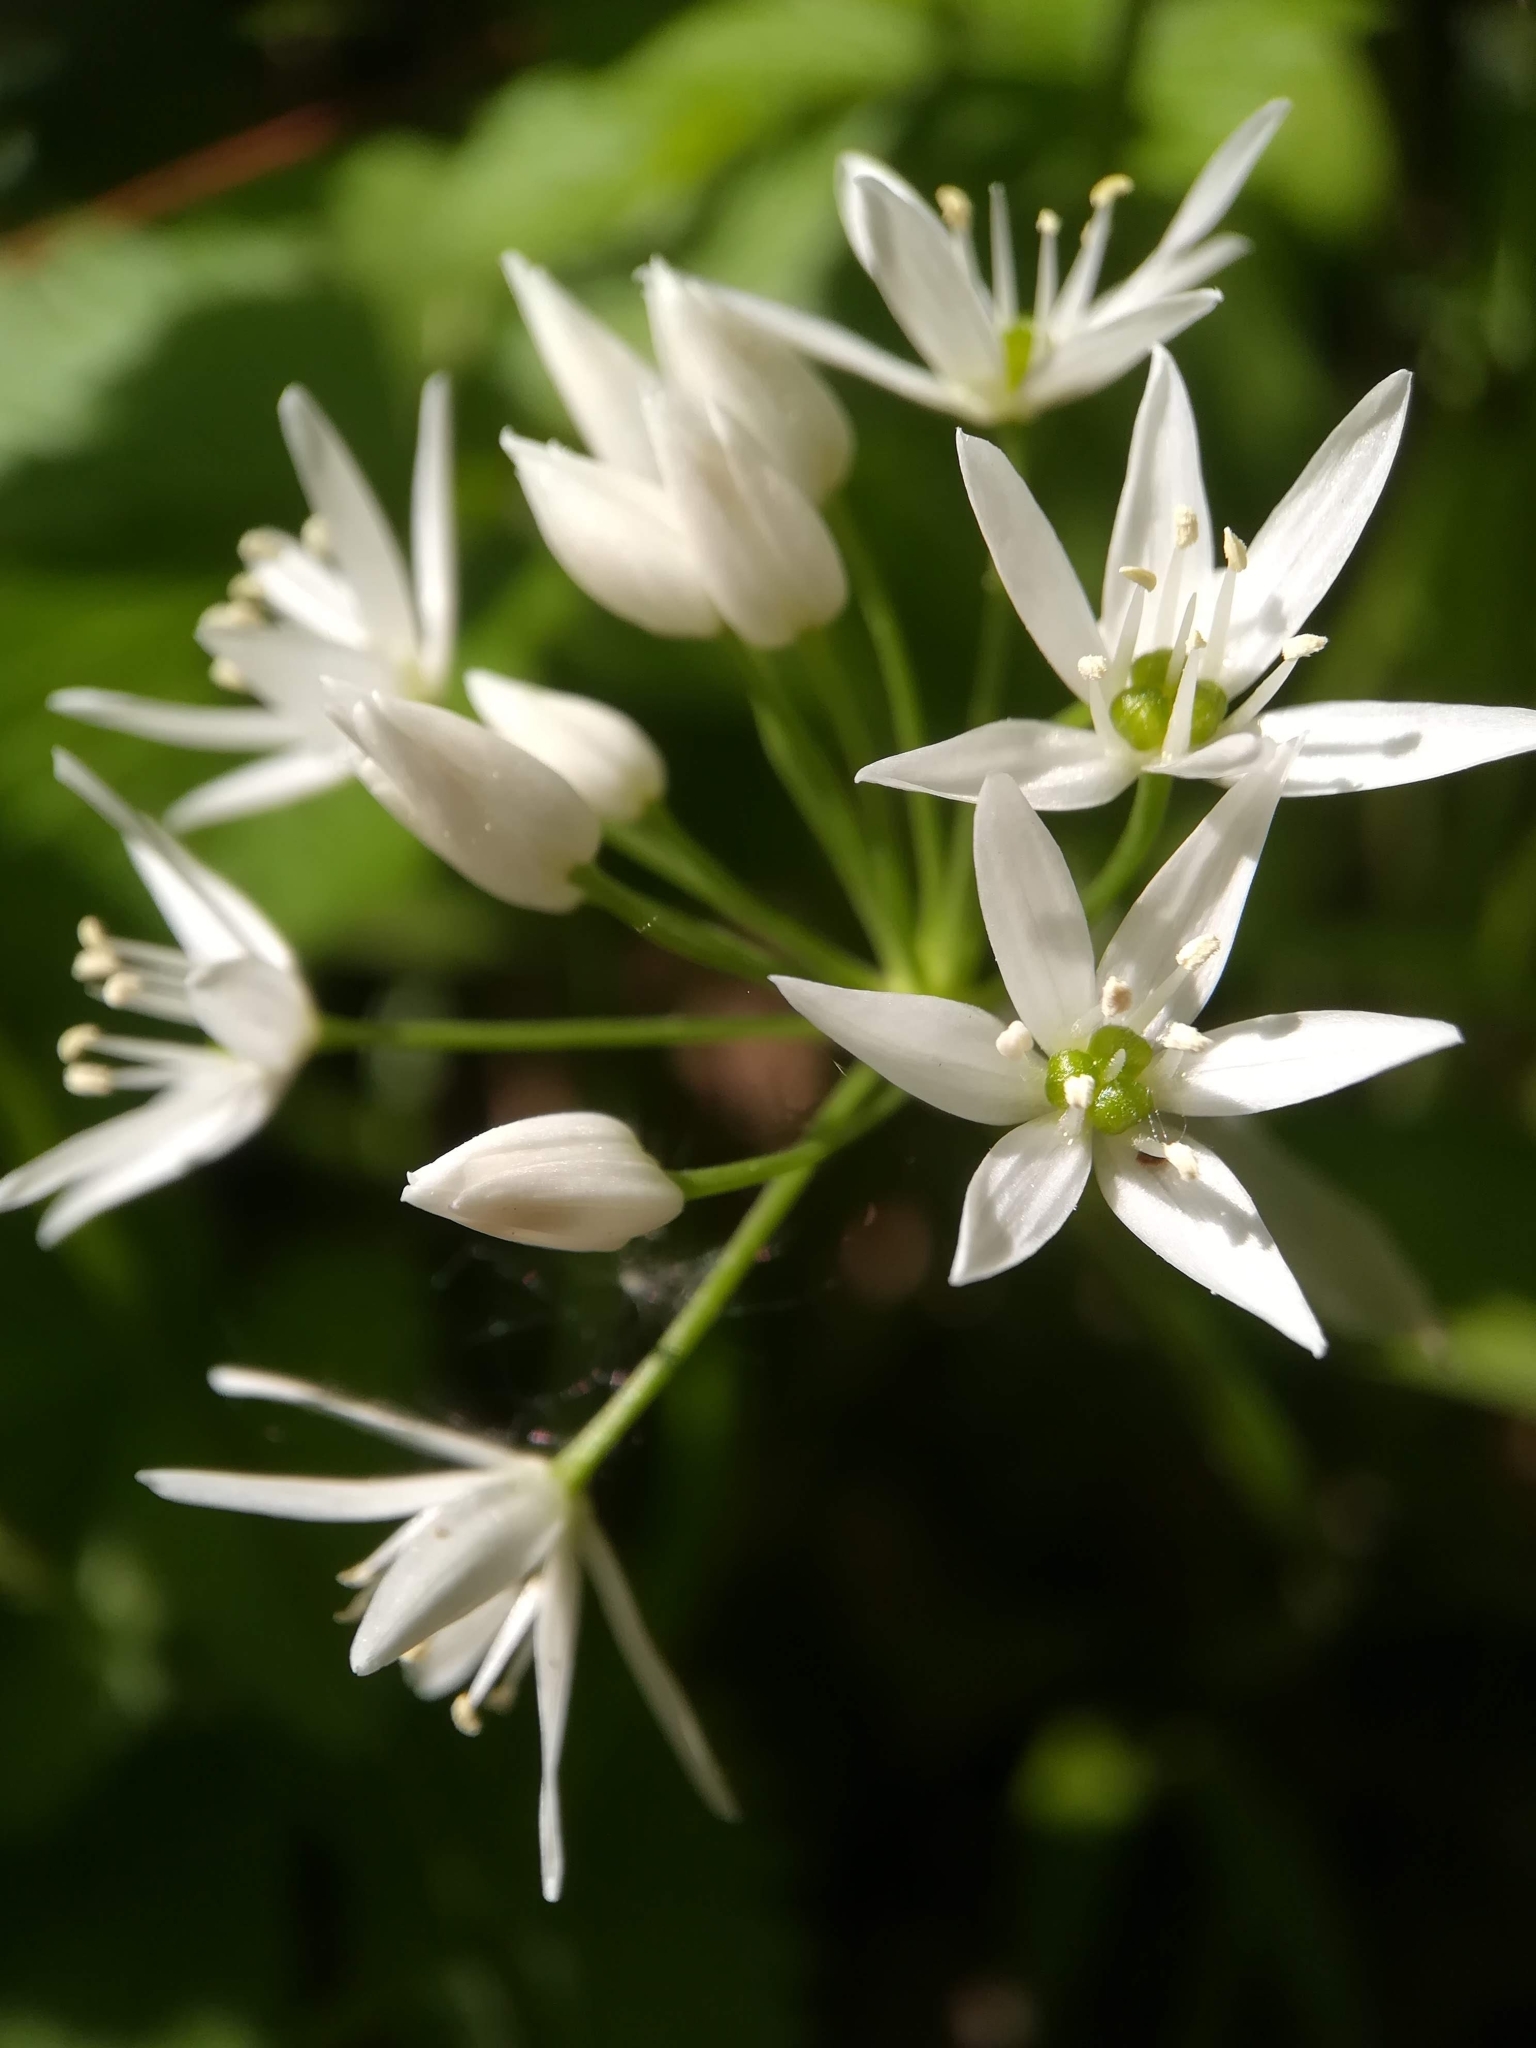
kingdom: Plantae
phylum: Tracheophyta
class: Liliopsida
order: Asparagales
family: Amaryllidaceae
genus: Allium
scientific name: Allium ursinum
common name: Ramsons
